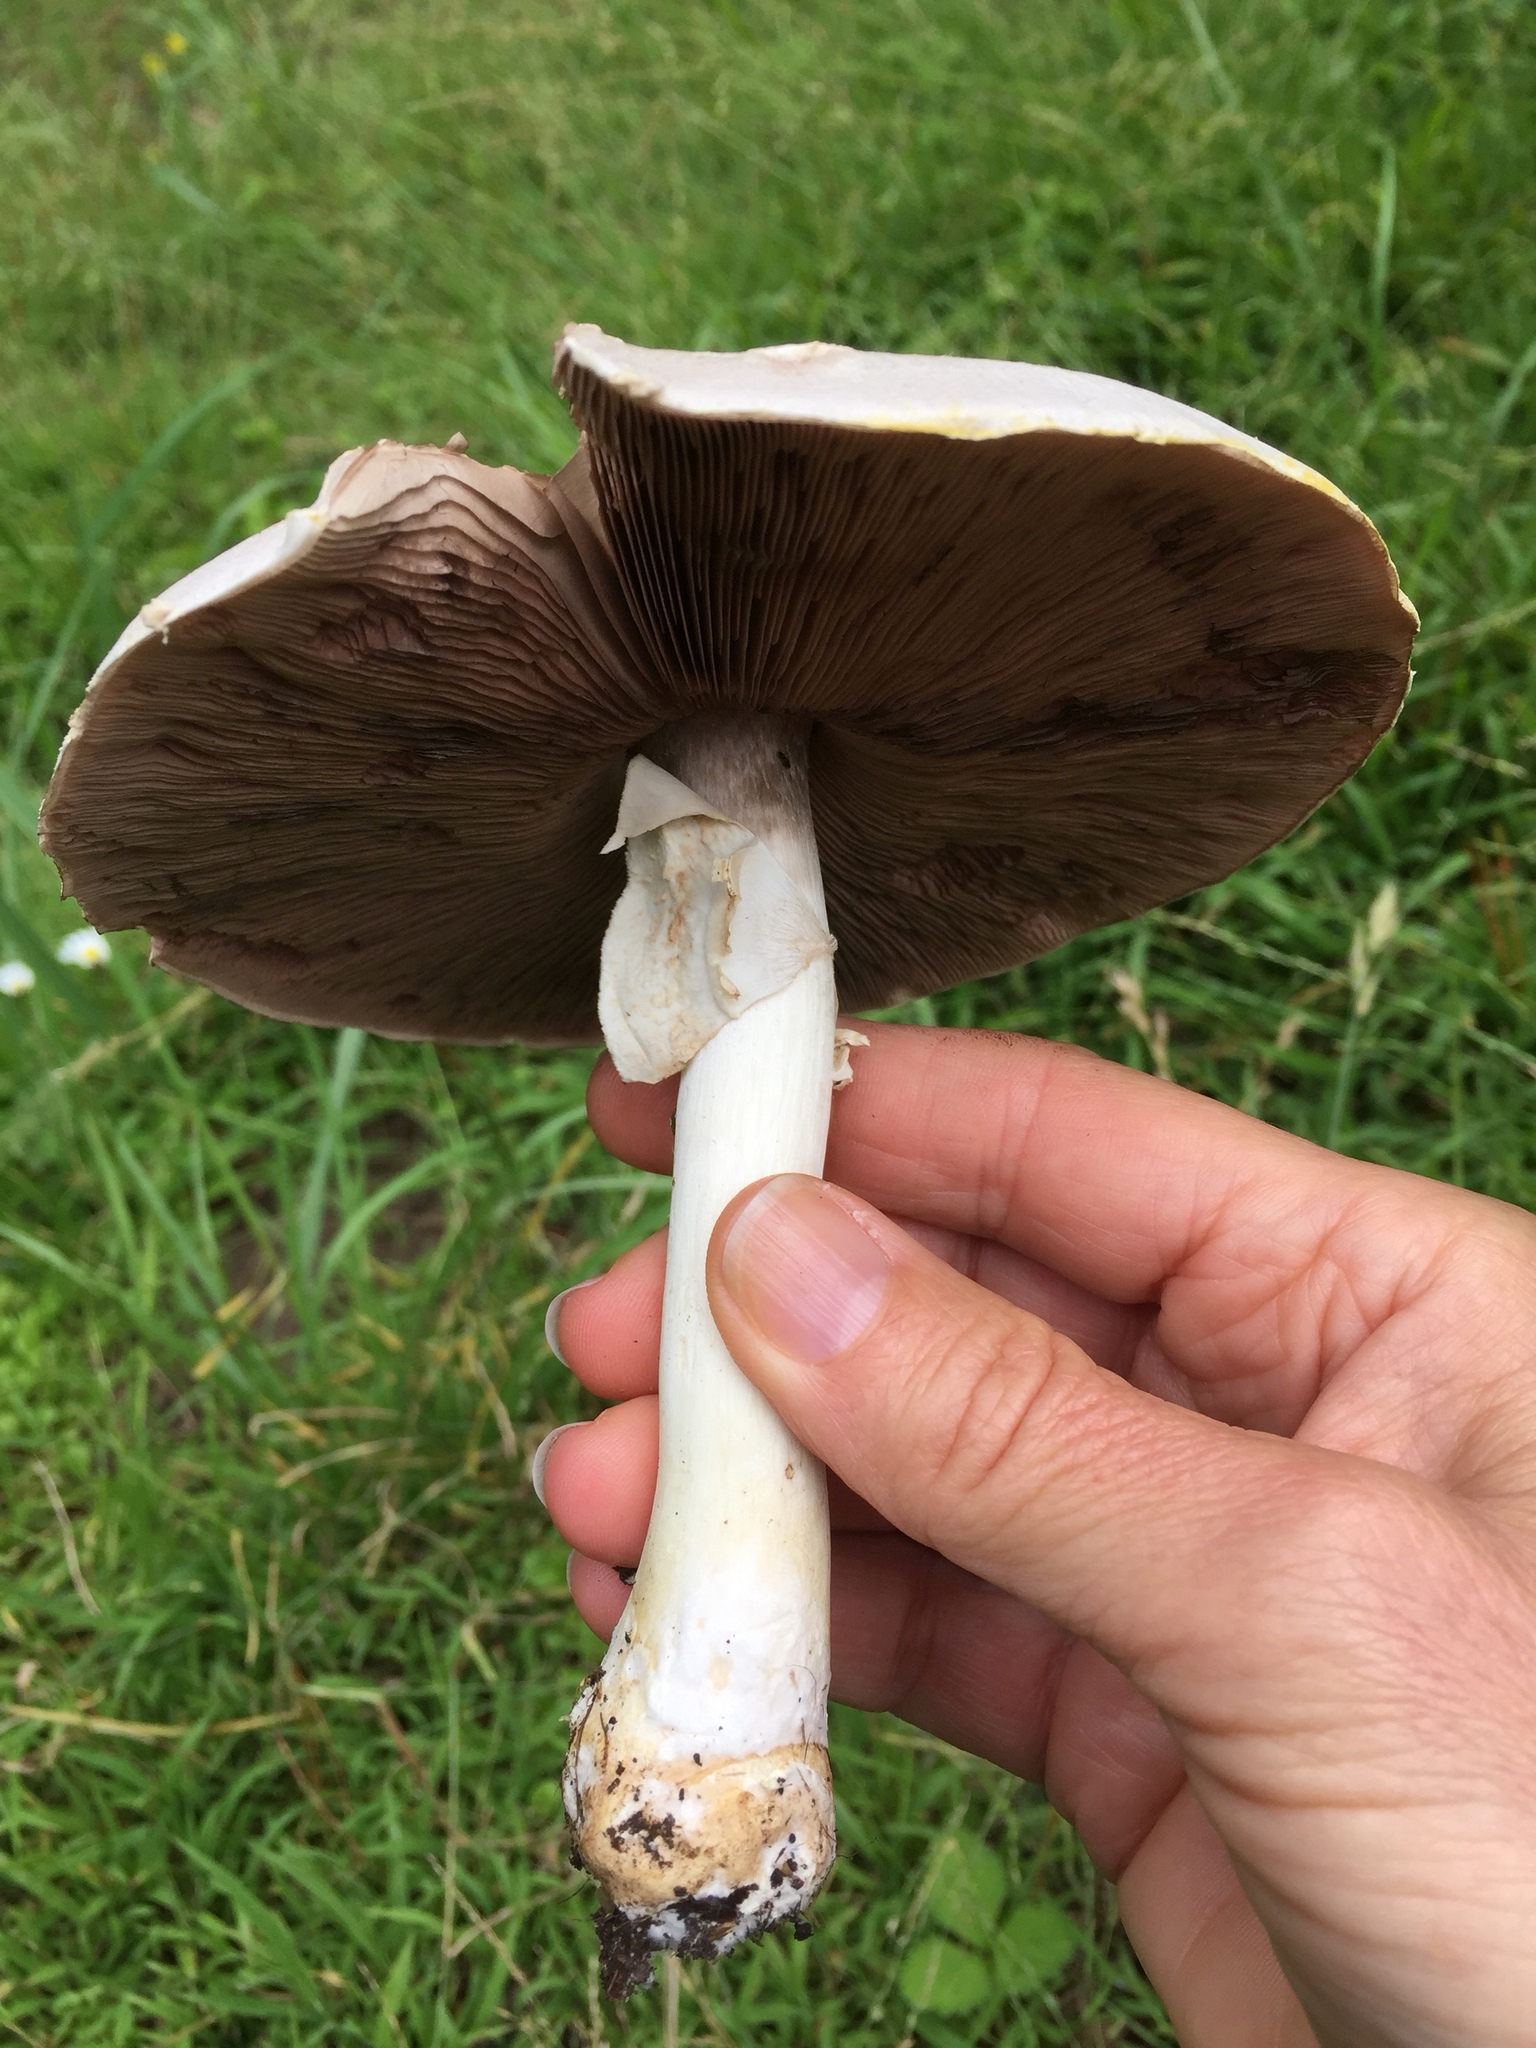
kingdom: Fungi
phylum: Basidiomycota
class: Agaricomycetes
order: Agaricales
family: Agaricaceae
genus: Agaricus
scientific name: Agaricus xanthodermus
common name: Yellow stainer
